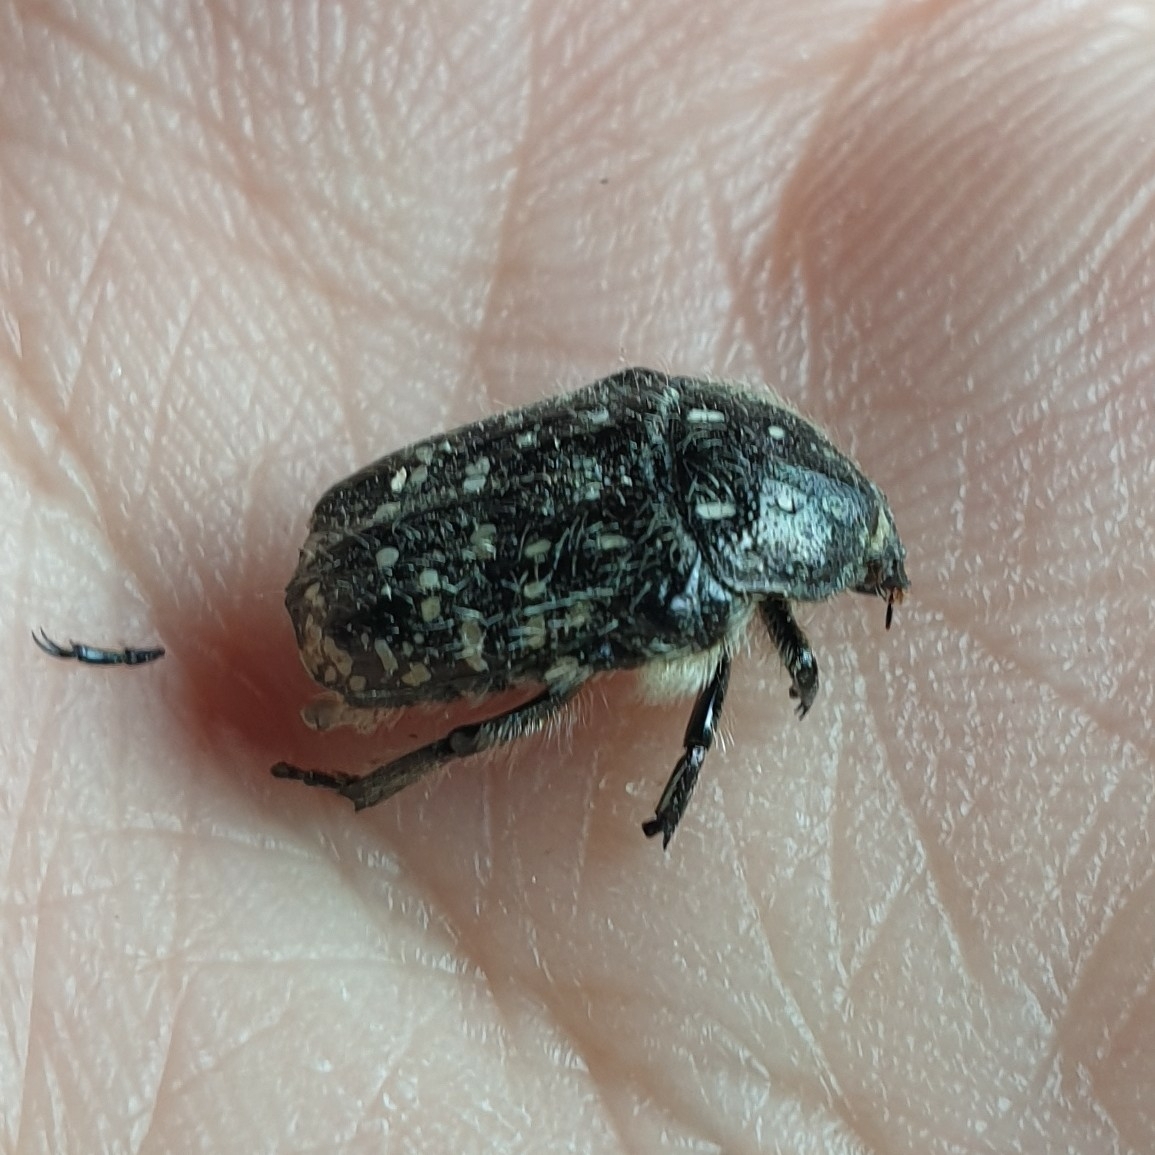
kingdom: Animalia
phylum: Arthropoda
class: Insecta
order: Coleoptera
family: Scarabaeidae
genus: Oxythyrea
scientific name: Oxythyrea funesta
